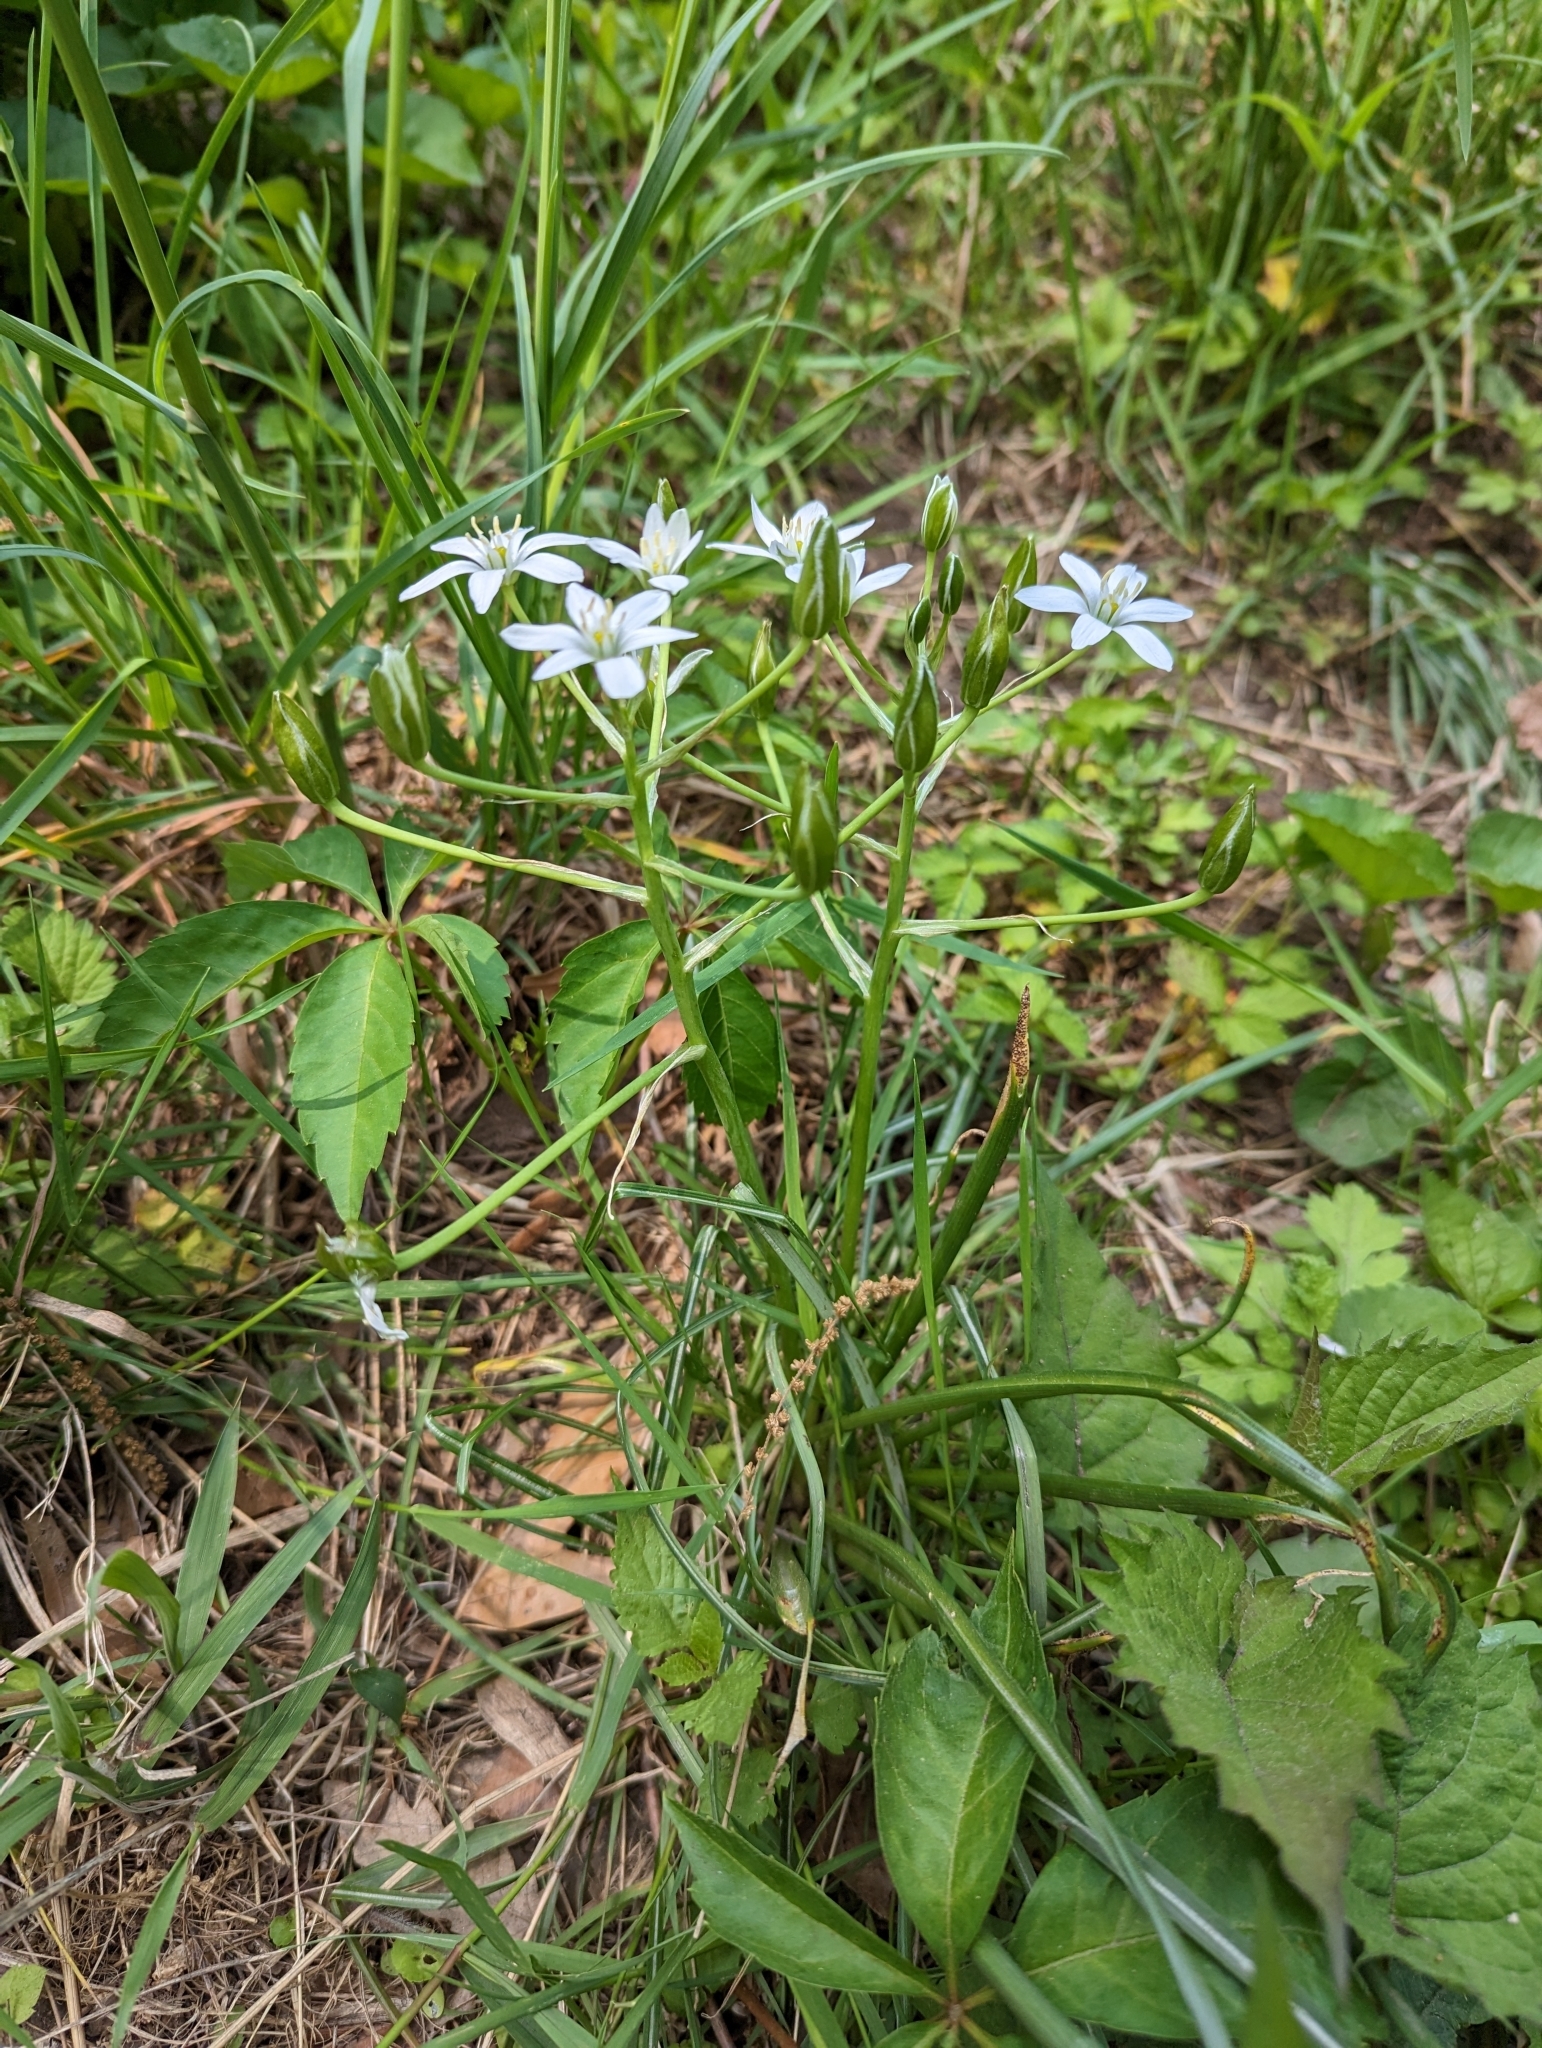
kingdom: Plantae
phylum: Tracheophyta
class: Liliopsida
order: Asparagales
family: Asparagaceae
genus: Ornithogalum
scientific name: Ornithogalum umbellatum
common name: Garden star-of-bethlehem
